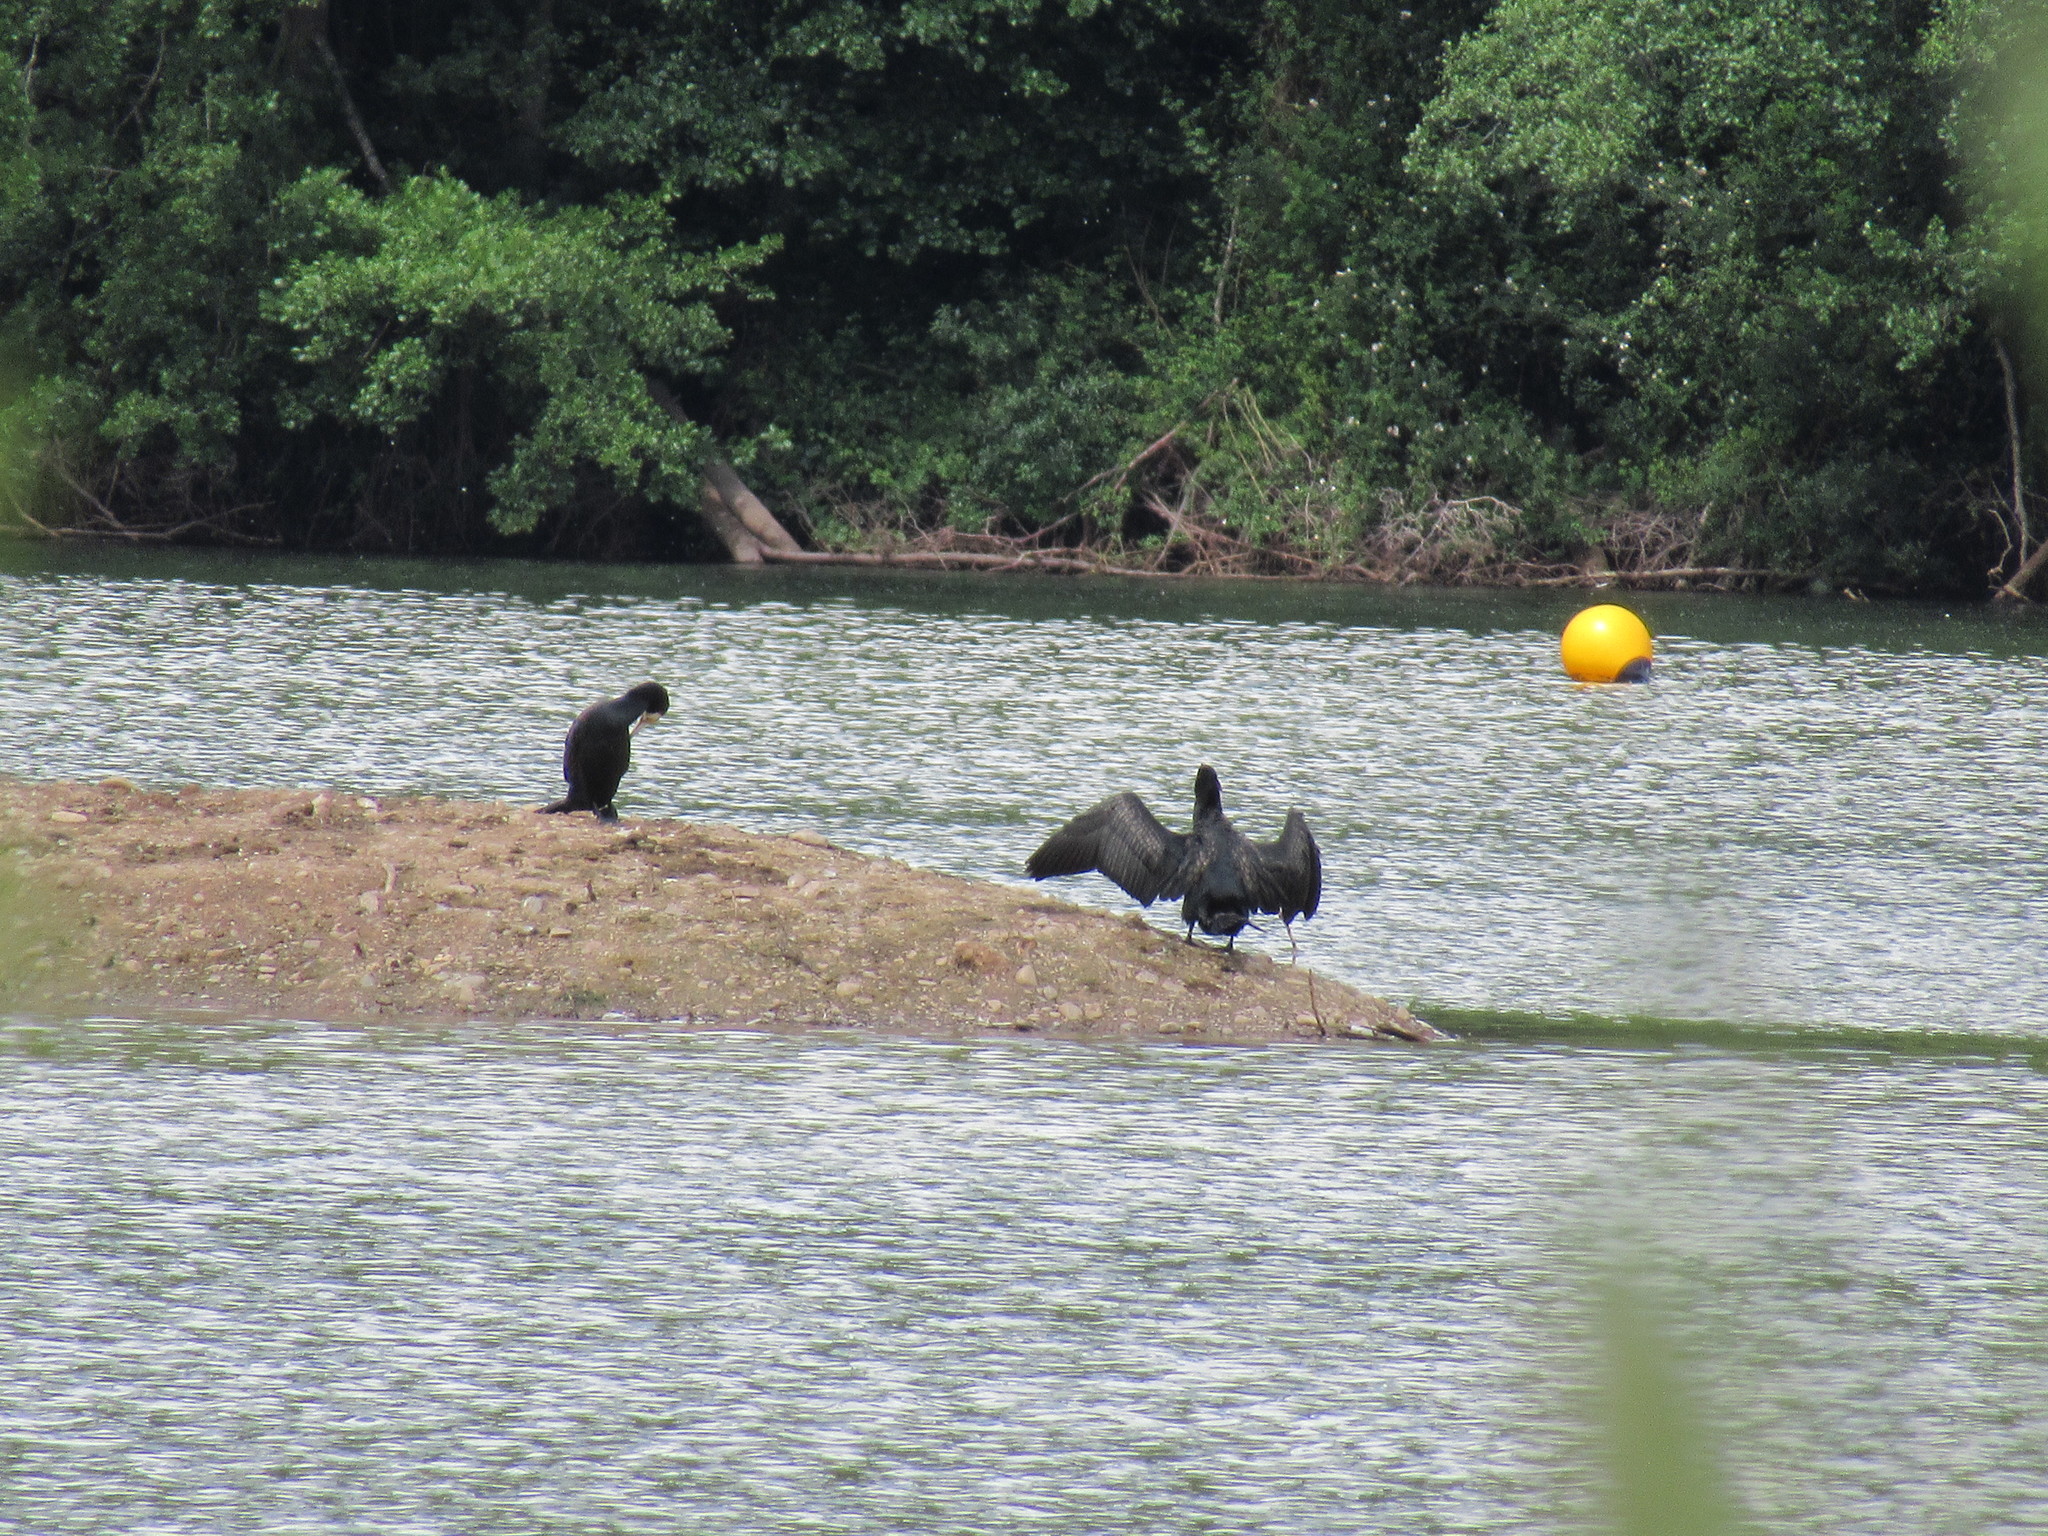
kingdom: Animalia
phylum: Chordata
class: Aves
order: Suliformes
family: Phalacrocoracidae
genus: Phalacrocorax
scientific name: Phalacrocorax carbo
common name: Great cormorant
